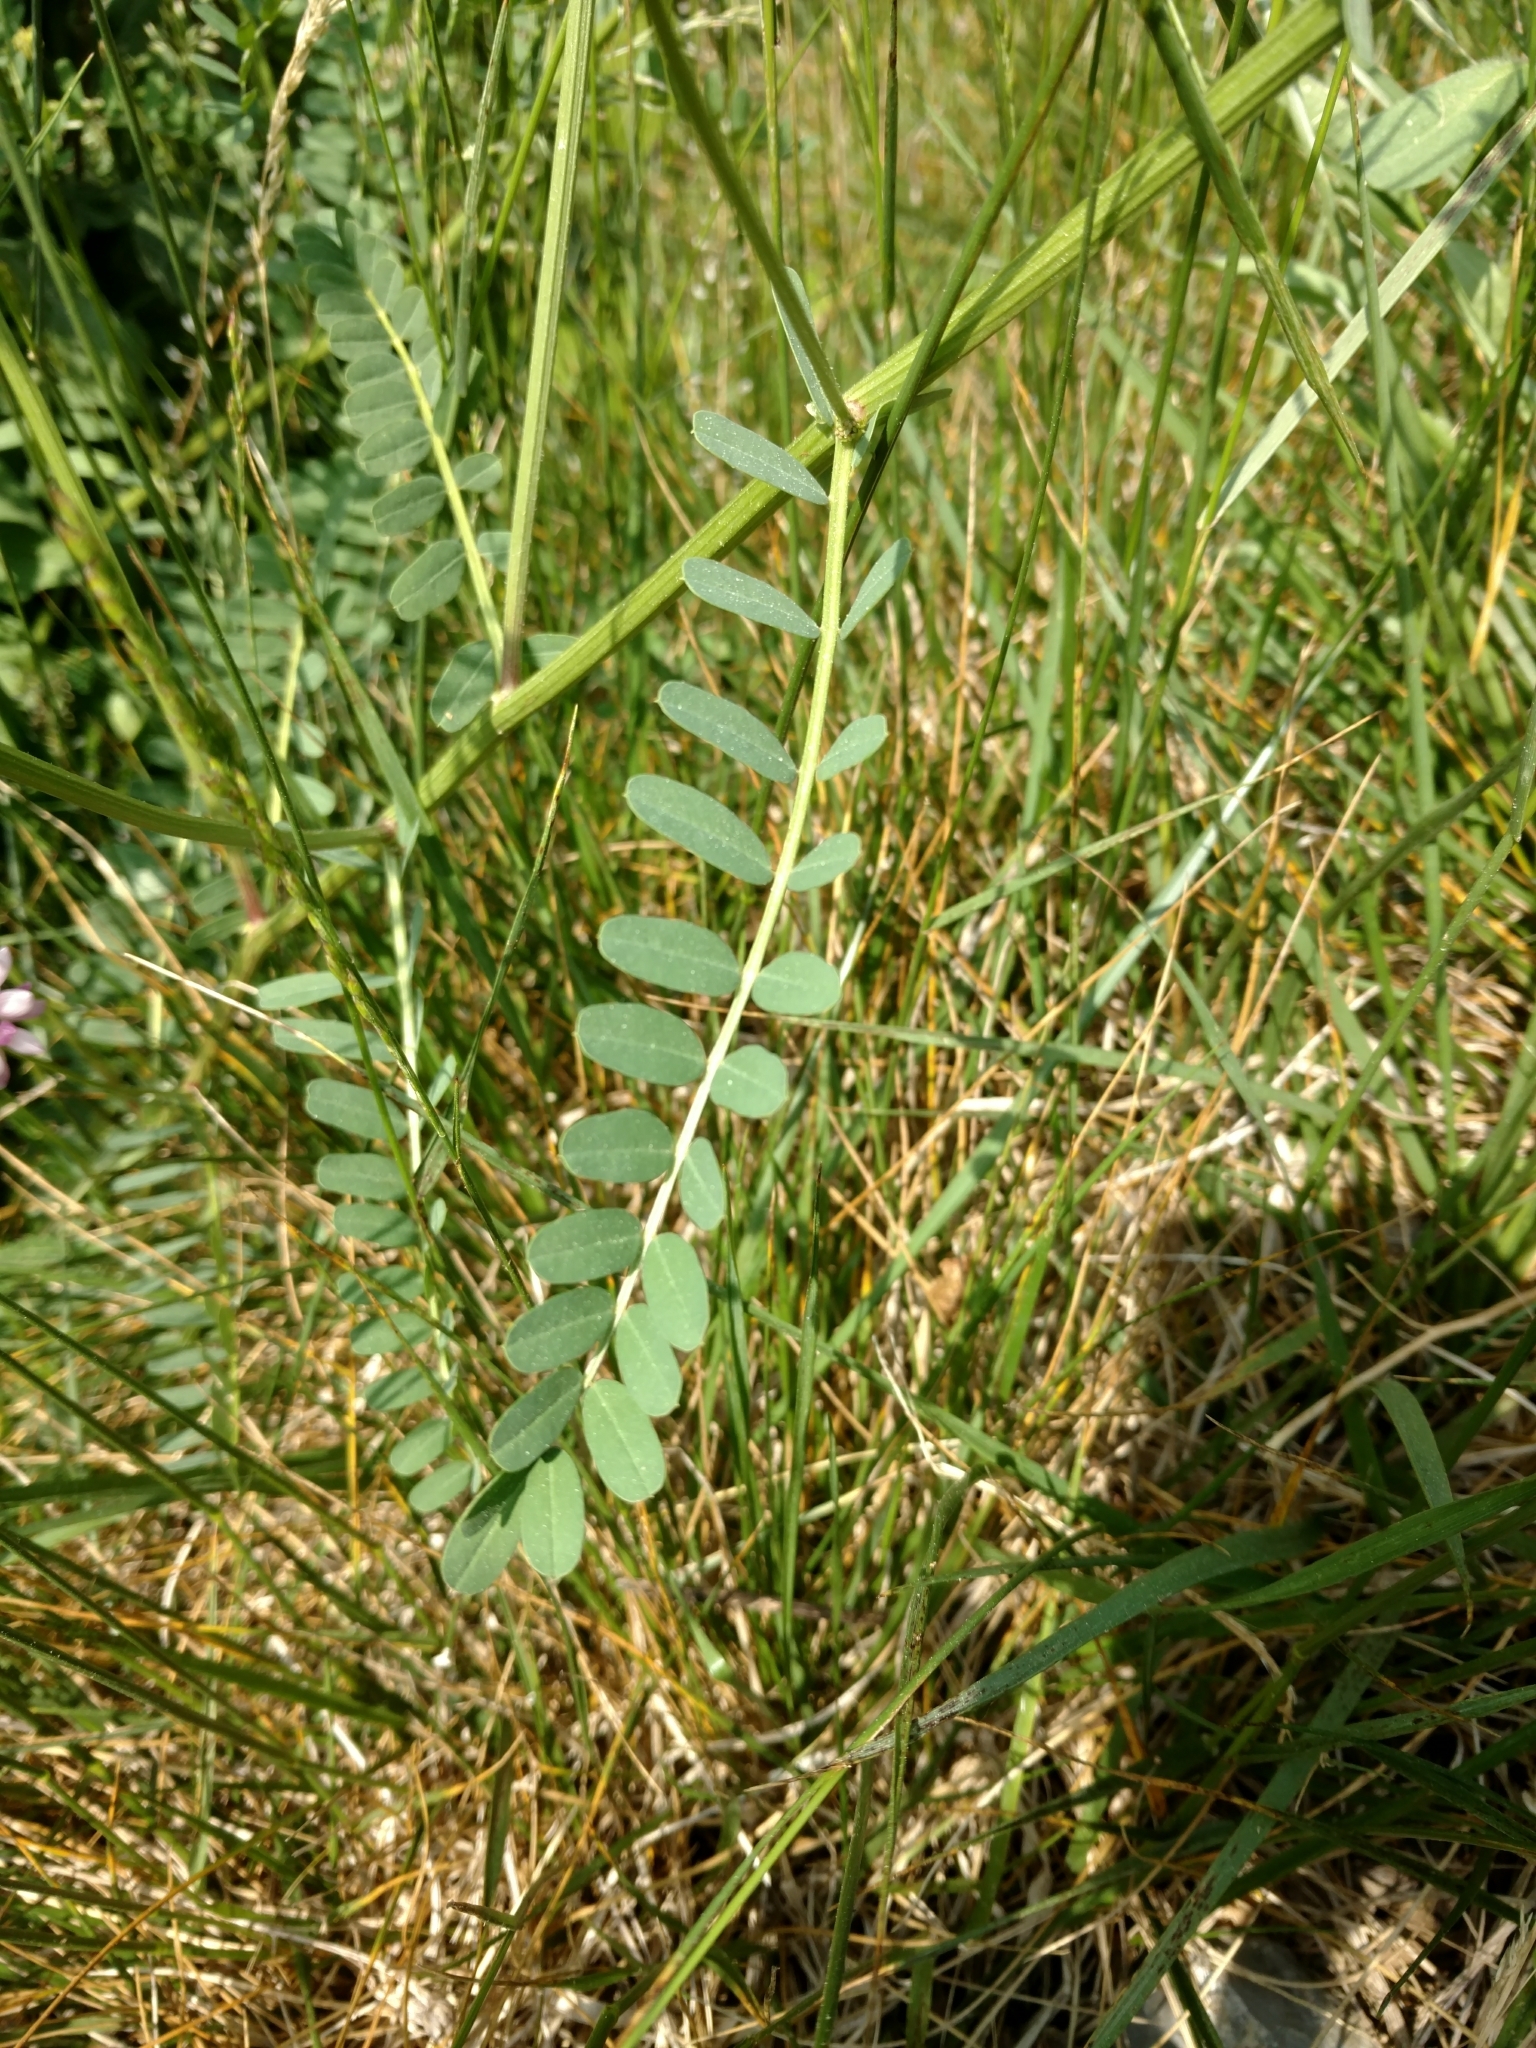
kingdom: Plantae
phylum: Tracheophyta
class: Magnoliopsida
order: Fabales
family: Fabaceae
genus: Coronilla
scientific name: Coronilla varia
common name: Crownvetch
